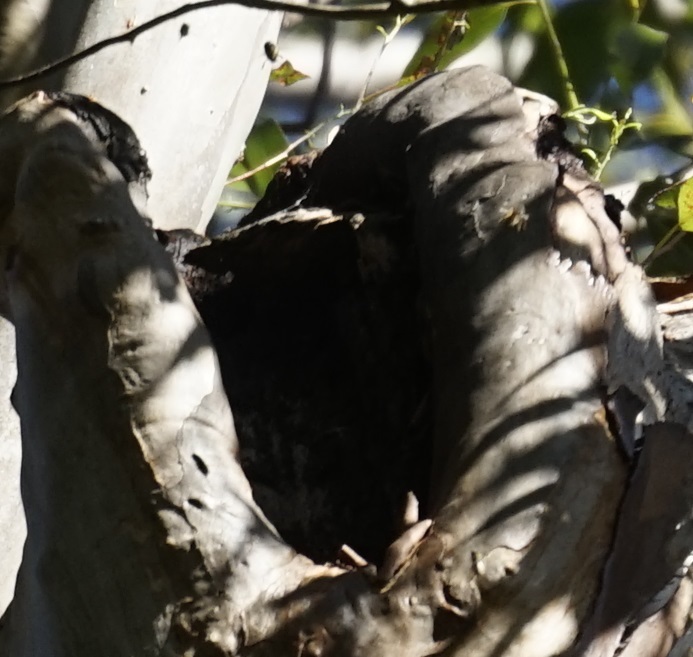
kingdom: Animalia
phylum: Arthropoda
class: Insecta
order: Hymenoptera
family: Apidae
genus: Apis
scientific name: Apis mellifera
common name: Honey bee
